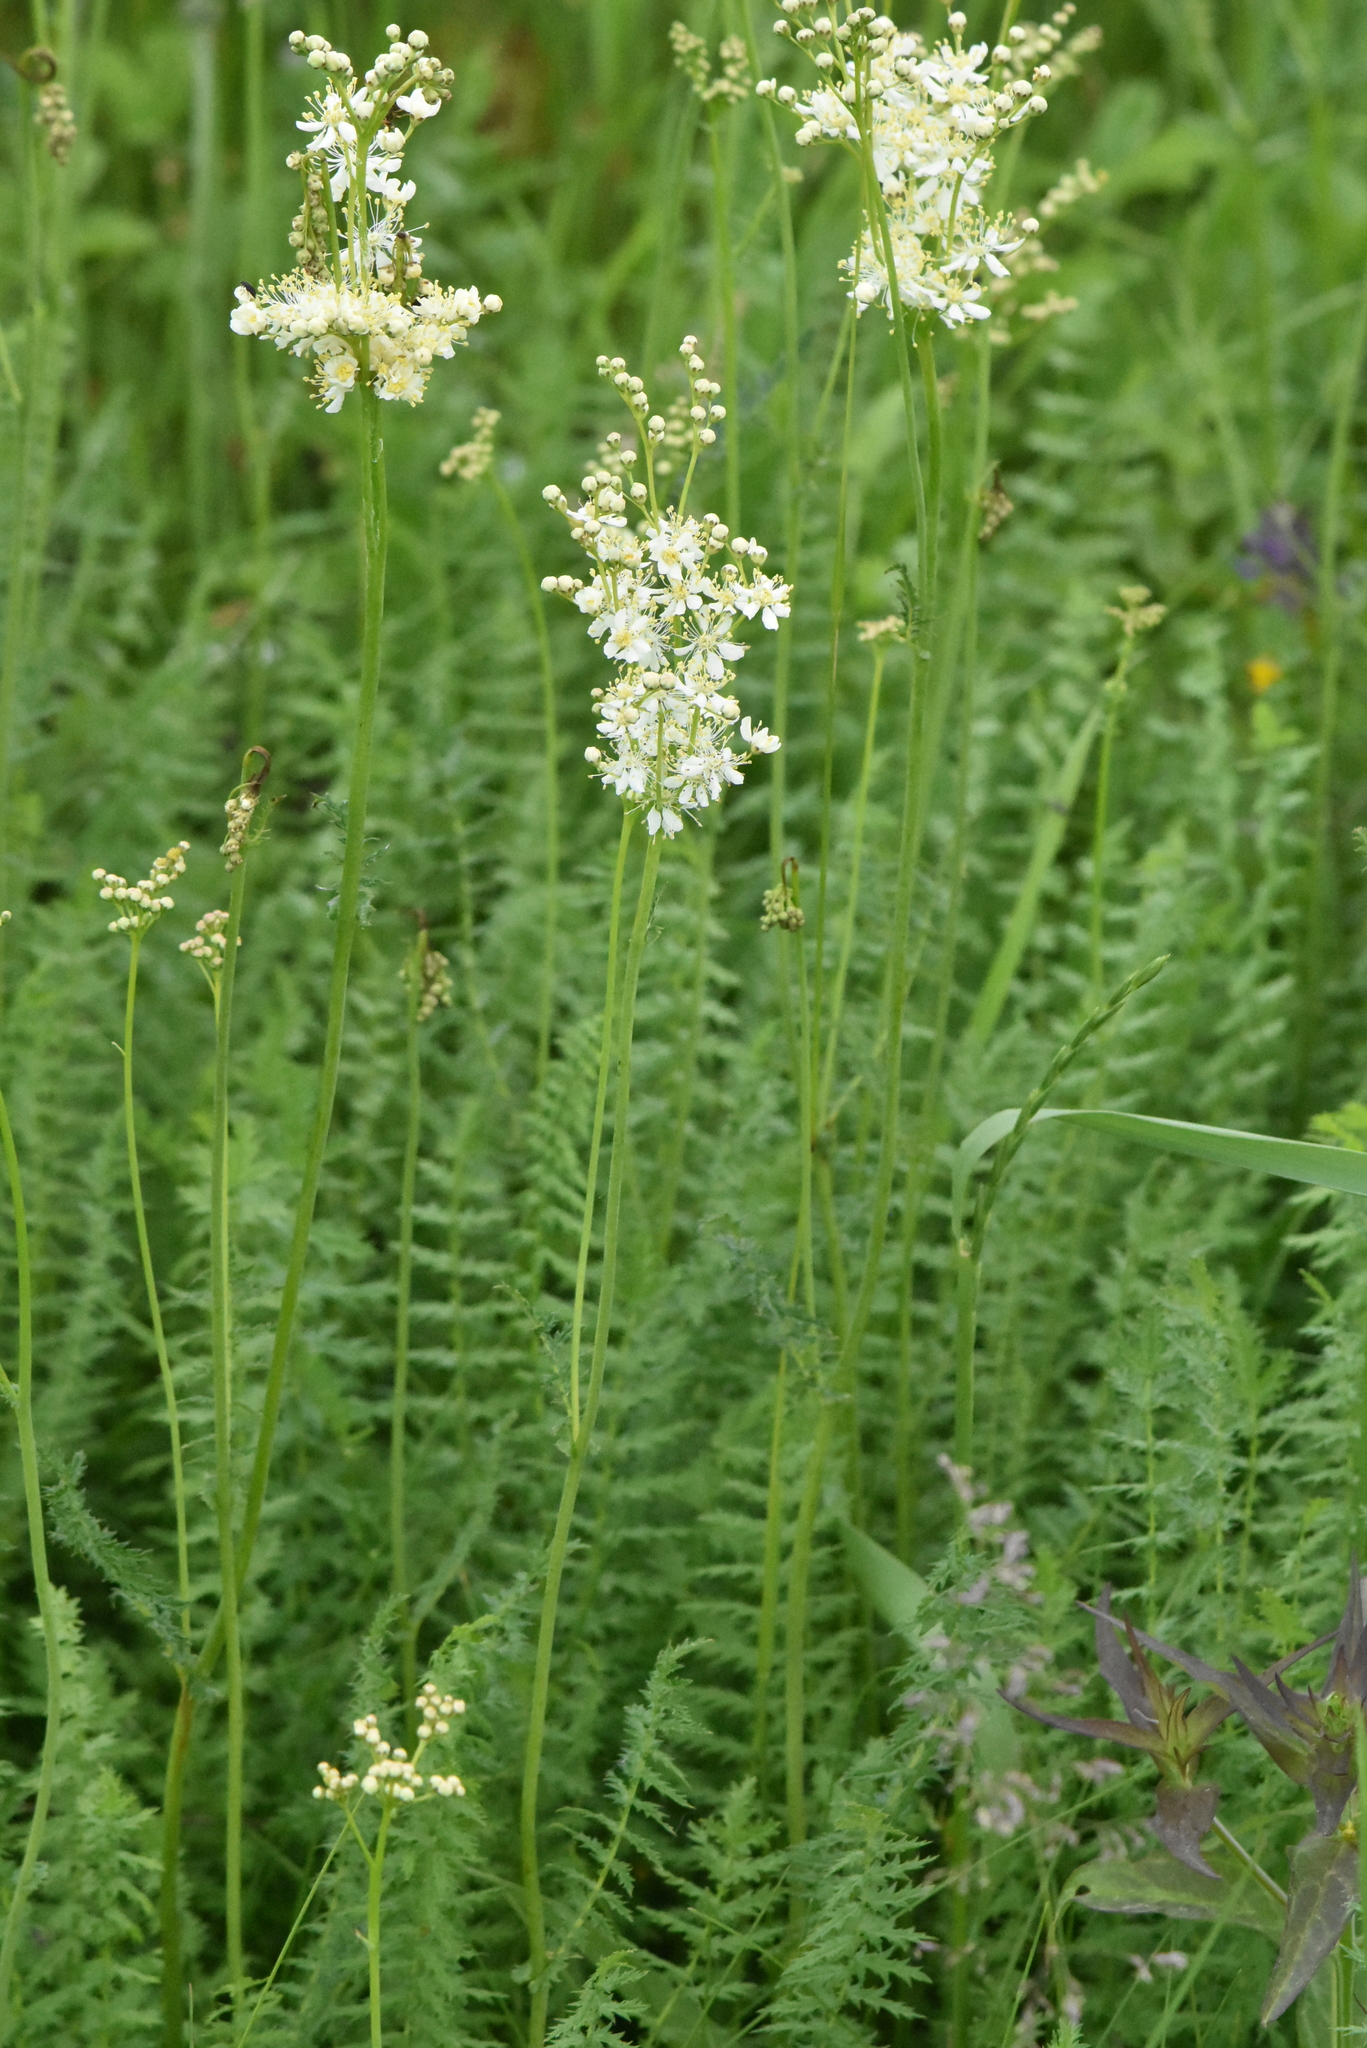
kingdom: Plantae
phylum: Tracheophyta
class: Magnoliopsida
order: Rosales
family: Rosaceae
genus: Filipendula
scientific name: Filipendula vulgaris
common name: Dropwort
